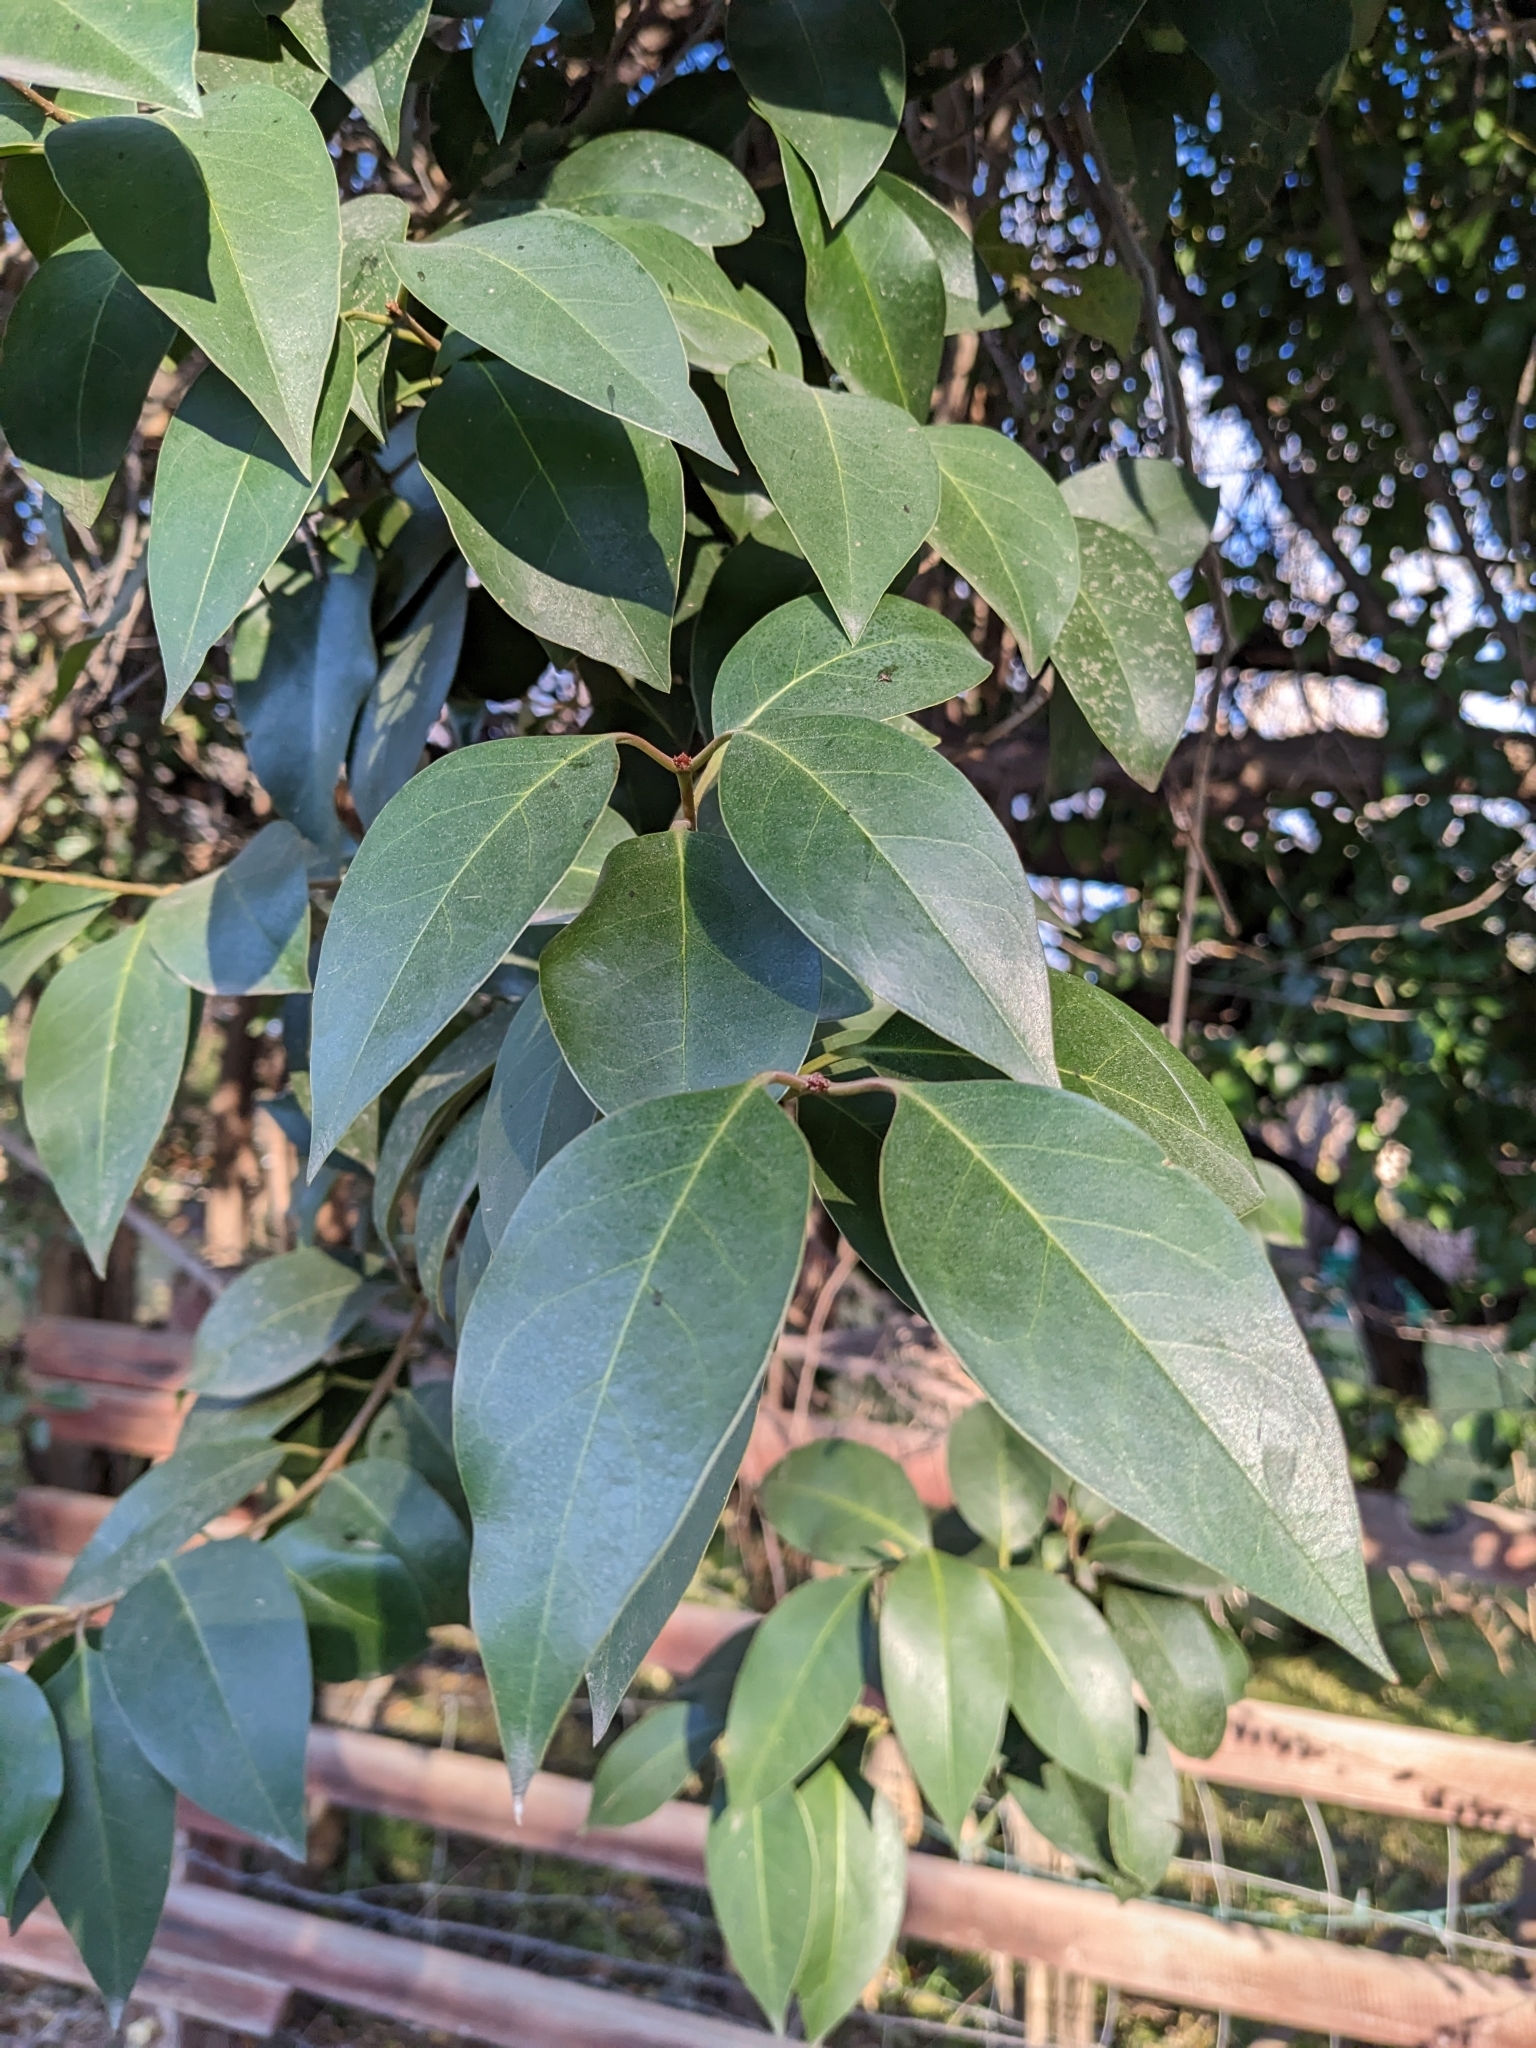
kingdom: Plantae
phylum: Tracheophyta
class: Magnoliopsida
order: Lamiales
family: Oleaceae
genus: Ligustrum
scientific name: Ligustrum lucidum
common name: Glossy privet
